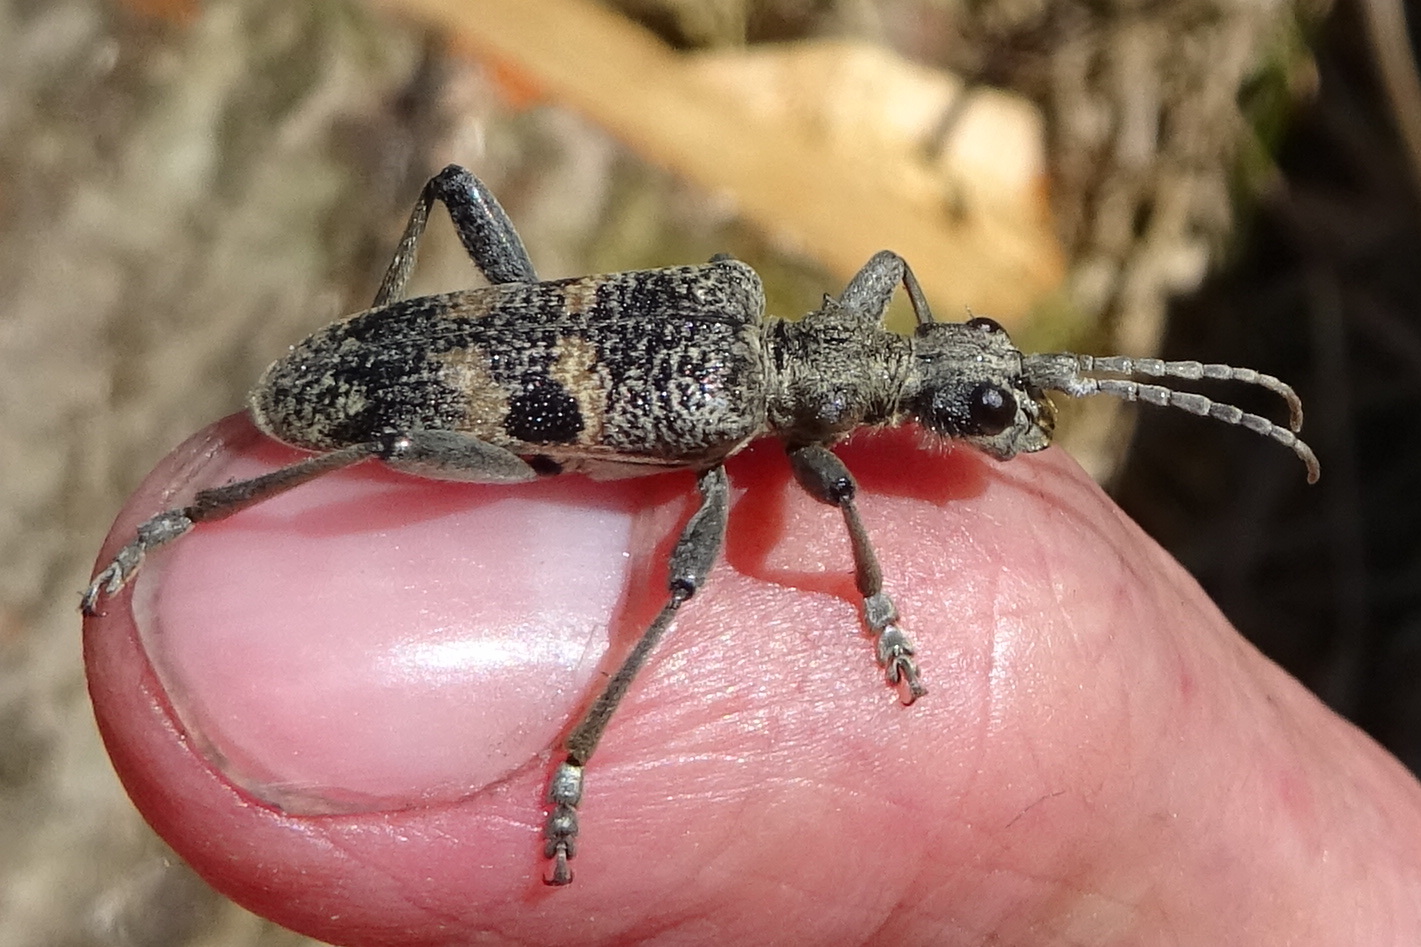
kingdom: Animalia
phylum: Arthropoda
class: Insecta
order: Coleoptera
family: Cerambycidae
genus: Rhagium
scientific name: Rhagium mordax
